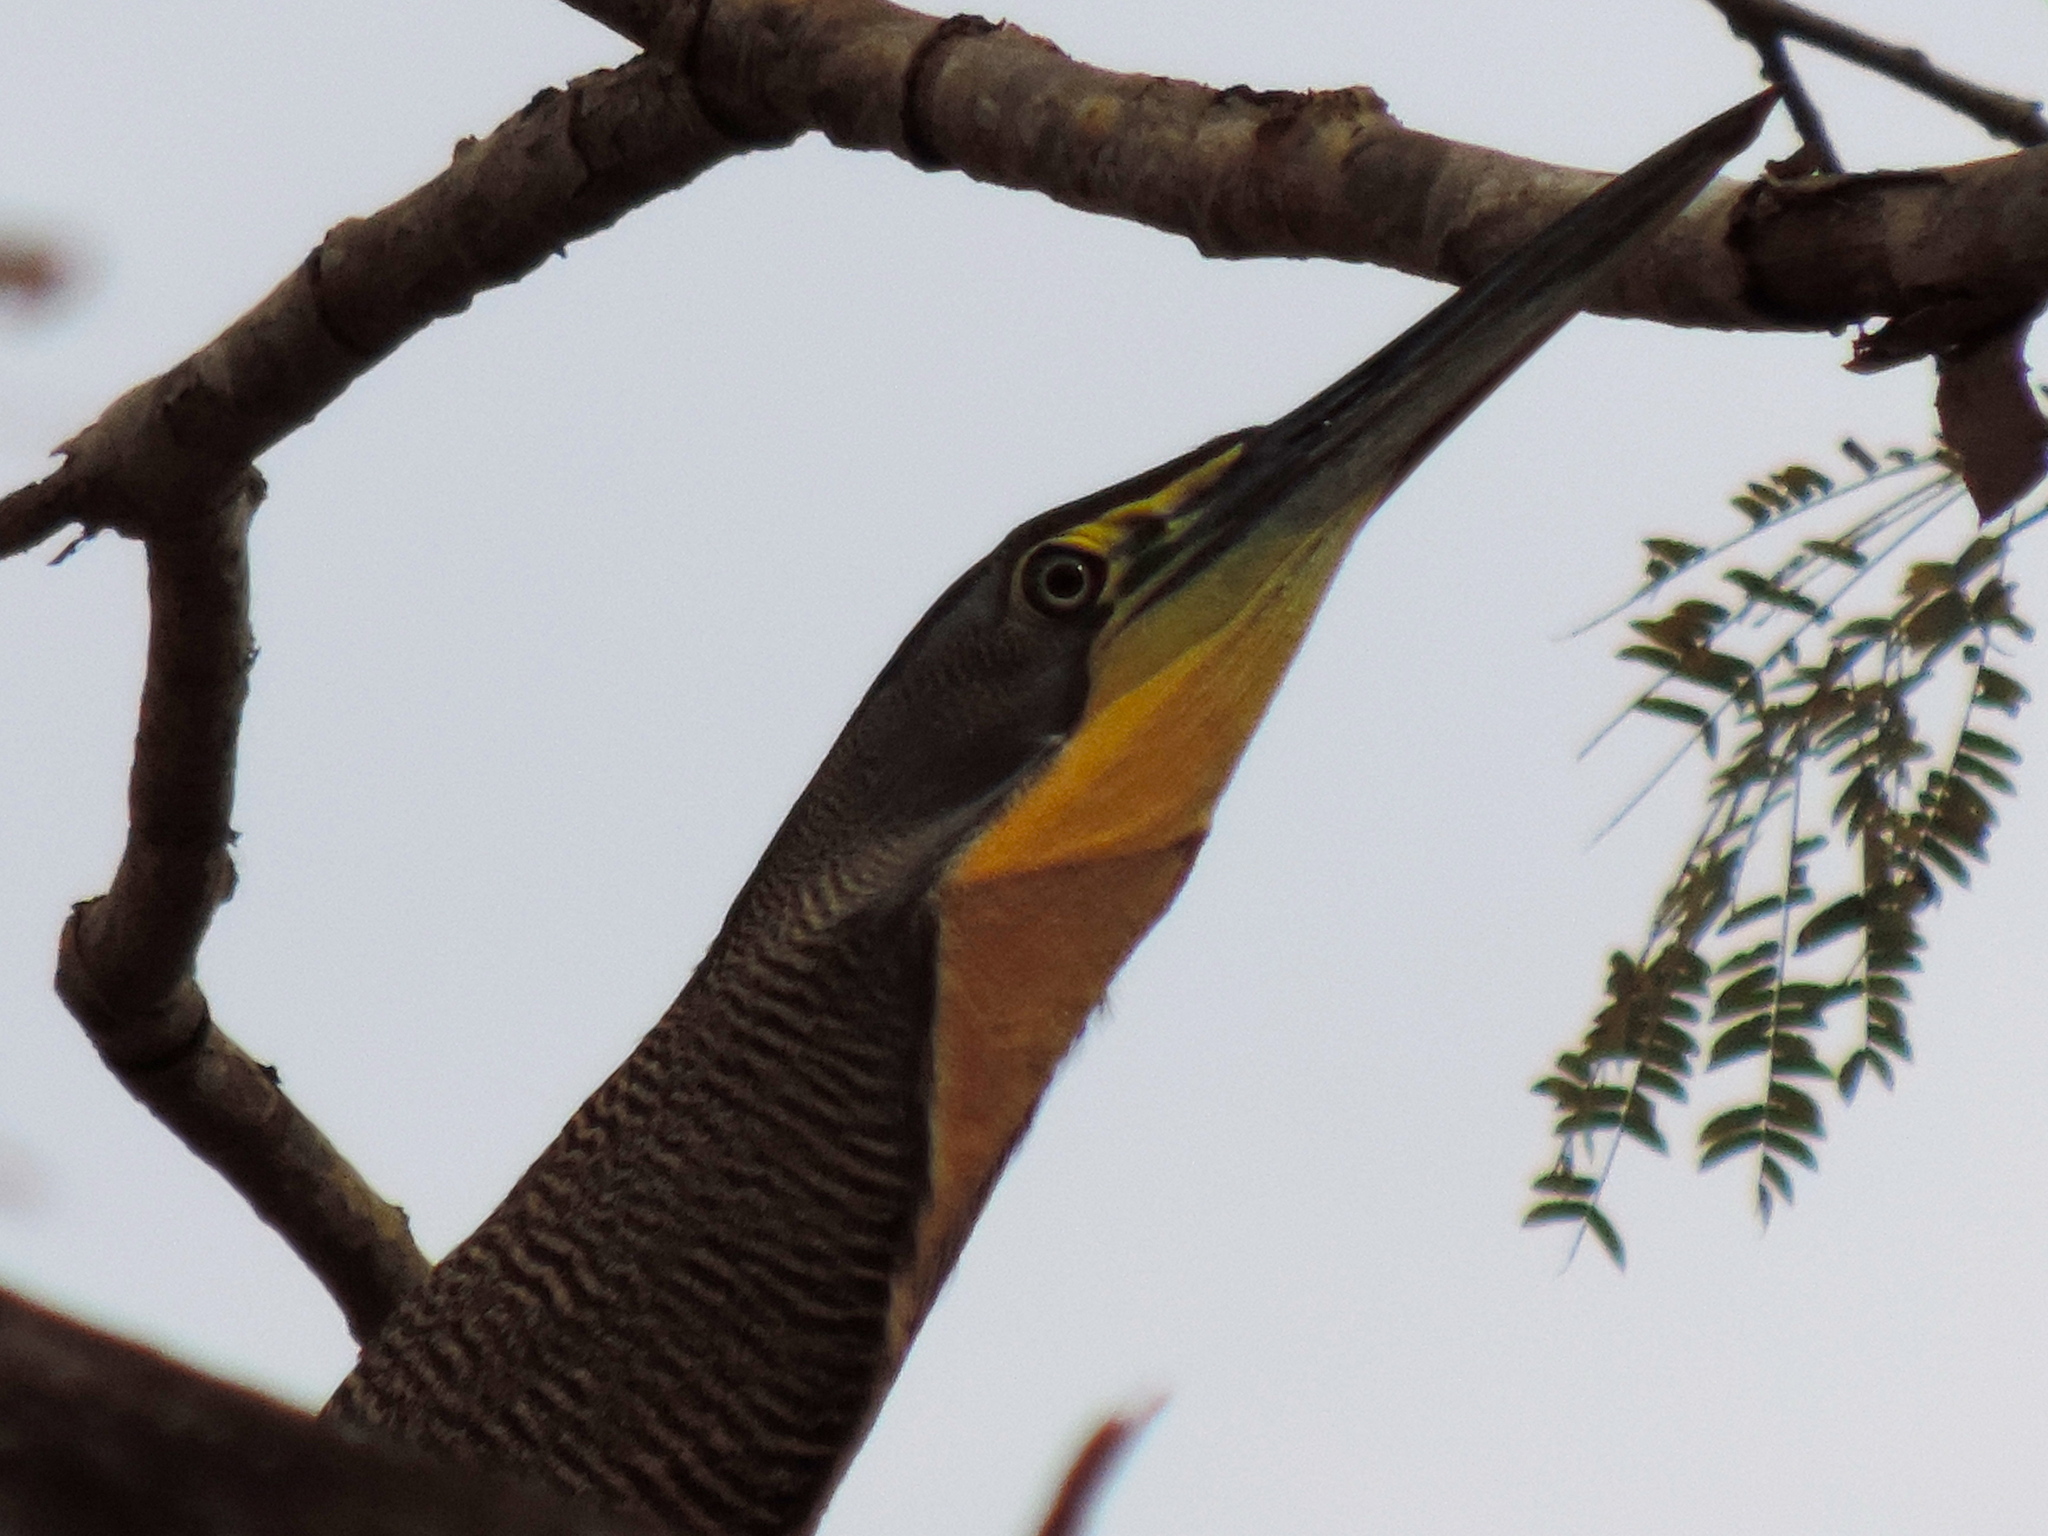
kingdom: Animalia
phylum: Chordata
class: Aves
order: Pelecaniformes
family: Ardeidae
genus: Tigrisoma
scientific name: Tigrisoma mexicanum
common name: Bare-throated tiger-heron
